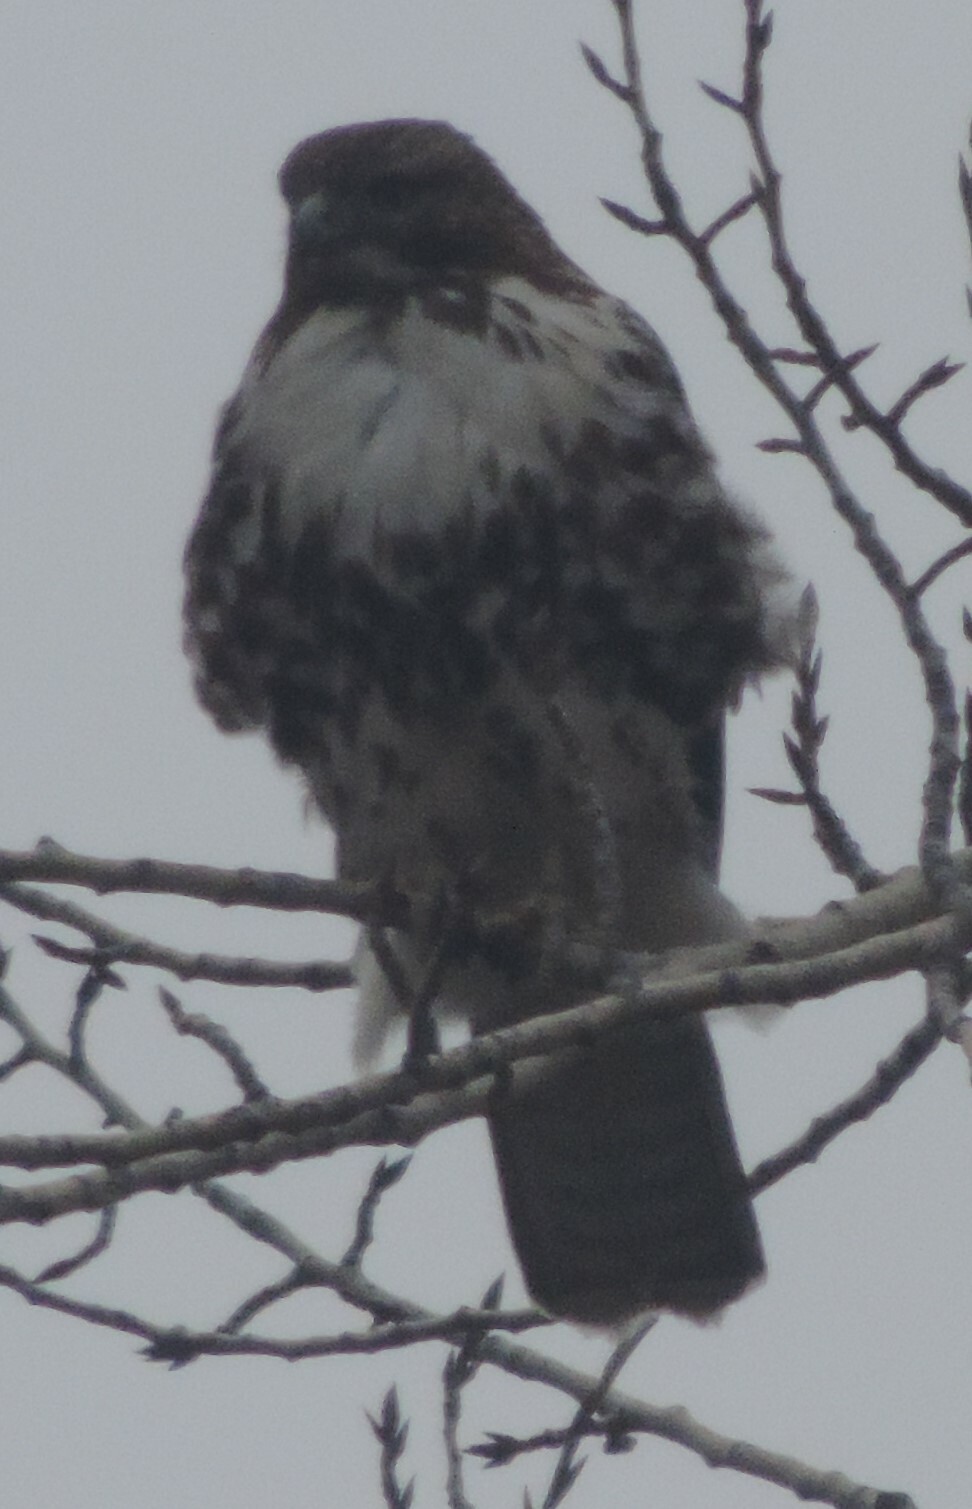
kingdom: Animalia
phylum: Chordata
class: Aves
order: Accipitriformes
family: Accipitridae
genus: Buteo
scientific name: Buteo jamaicensis
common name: Red-tailed hawk
